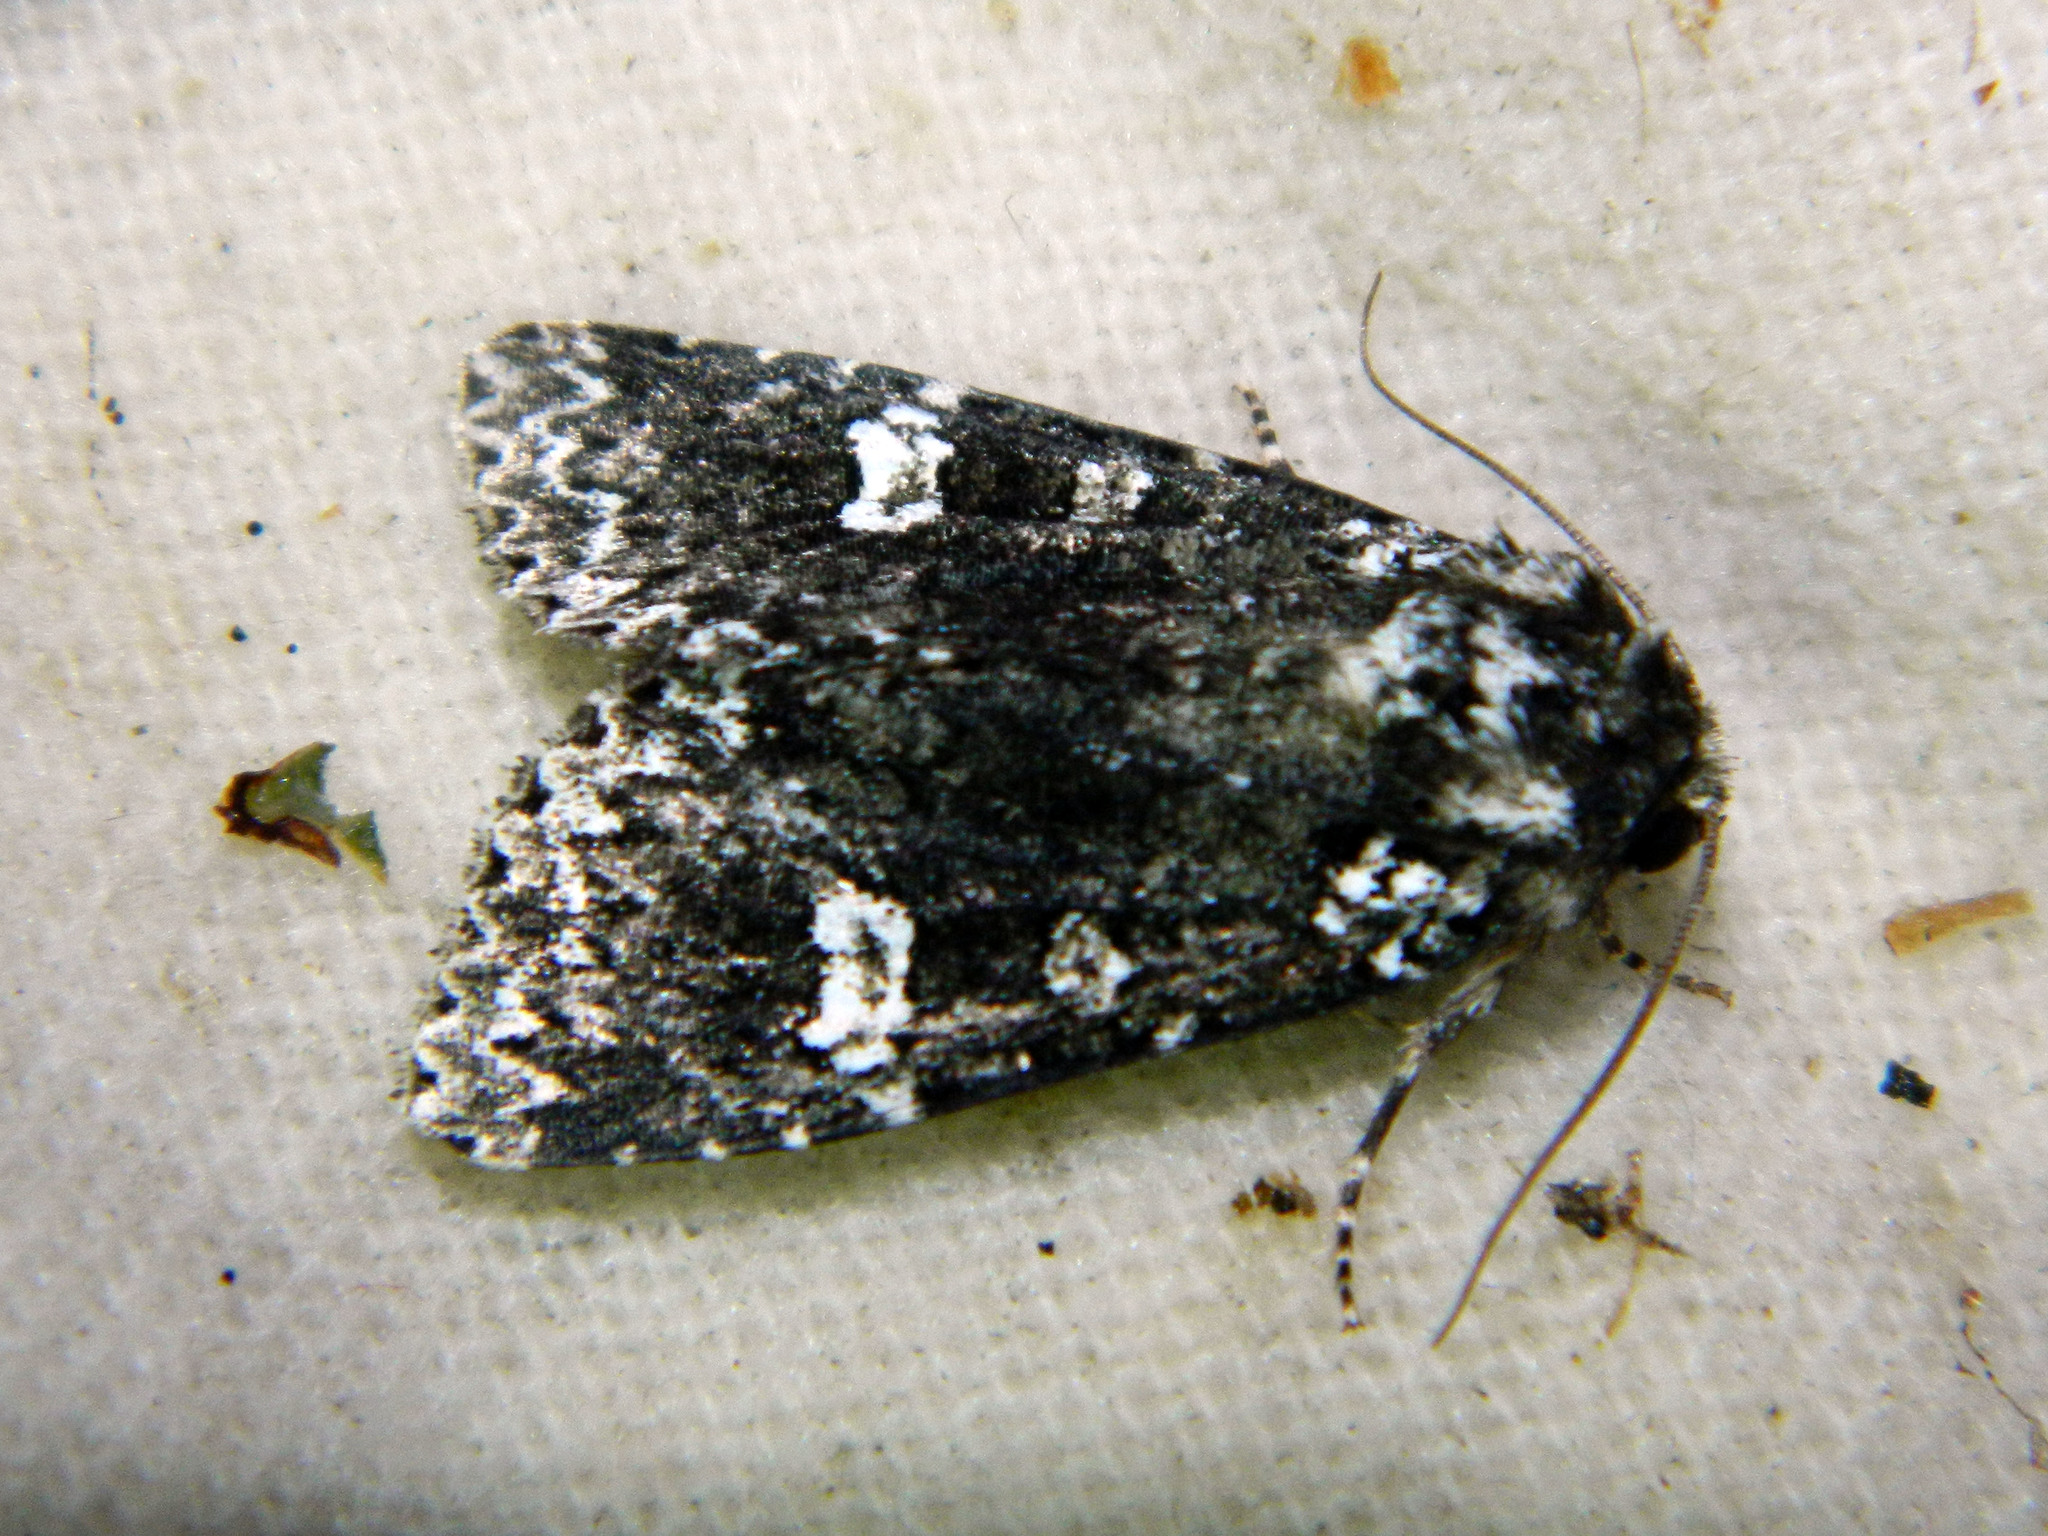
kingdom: Animalia
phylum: Arthropoda
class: Insecta
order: Lepidoptera
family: Noctuidae
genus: Melanchra
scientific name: Melanchra adjuncta
